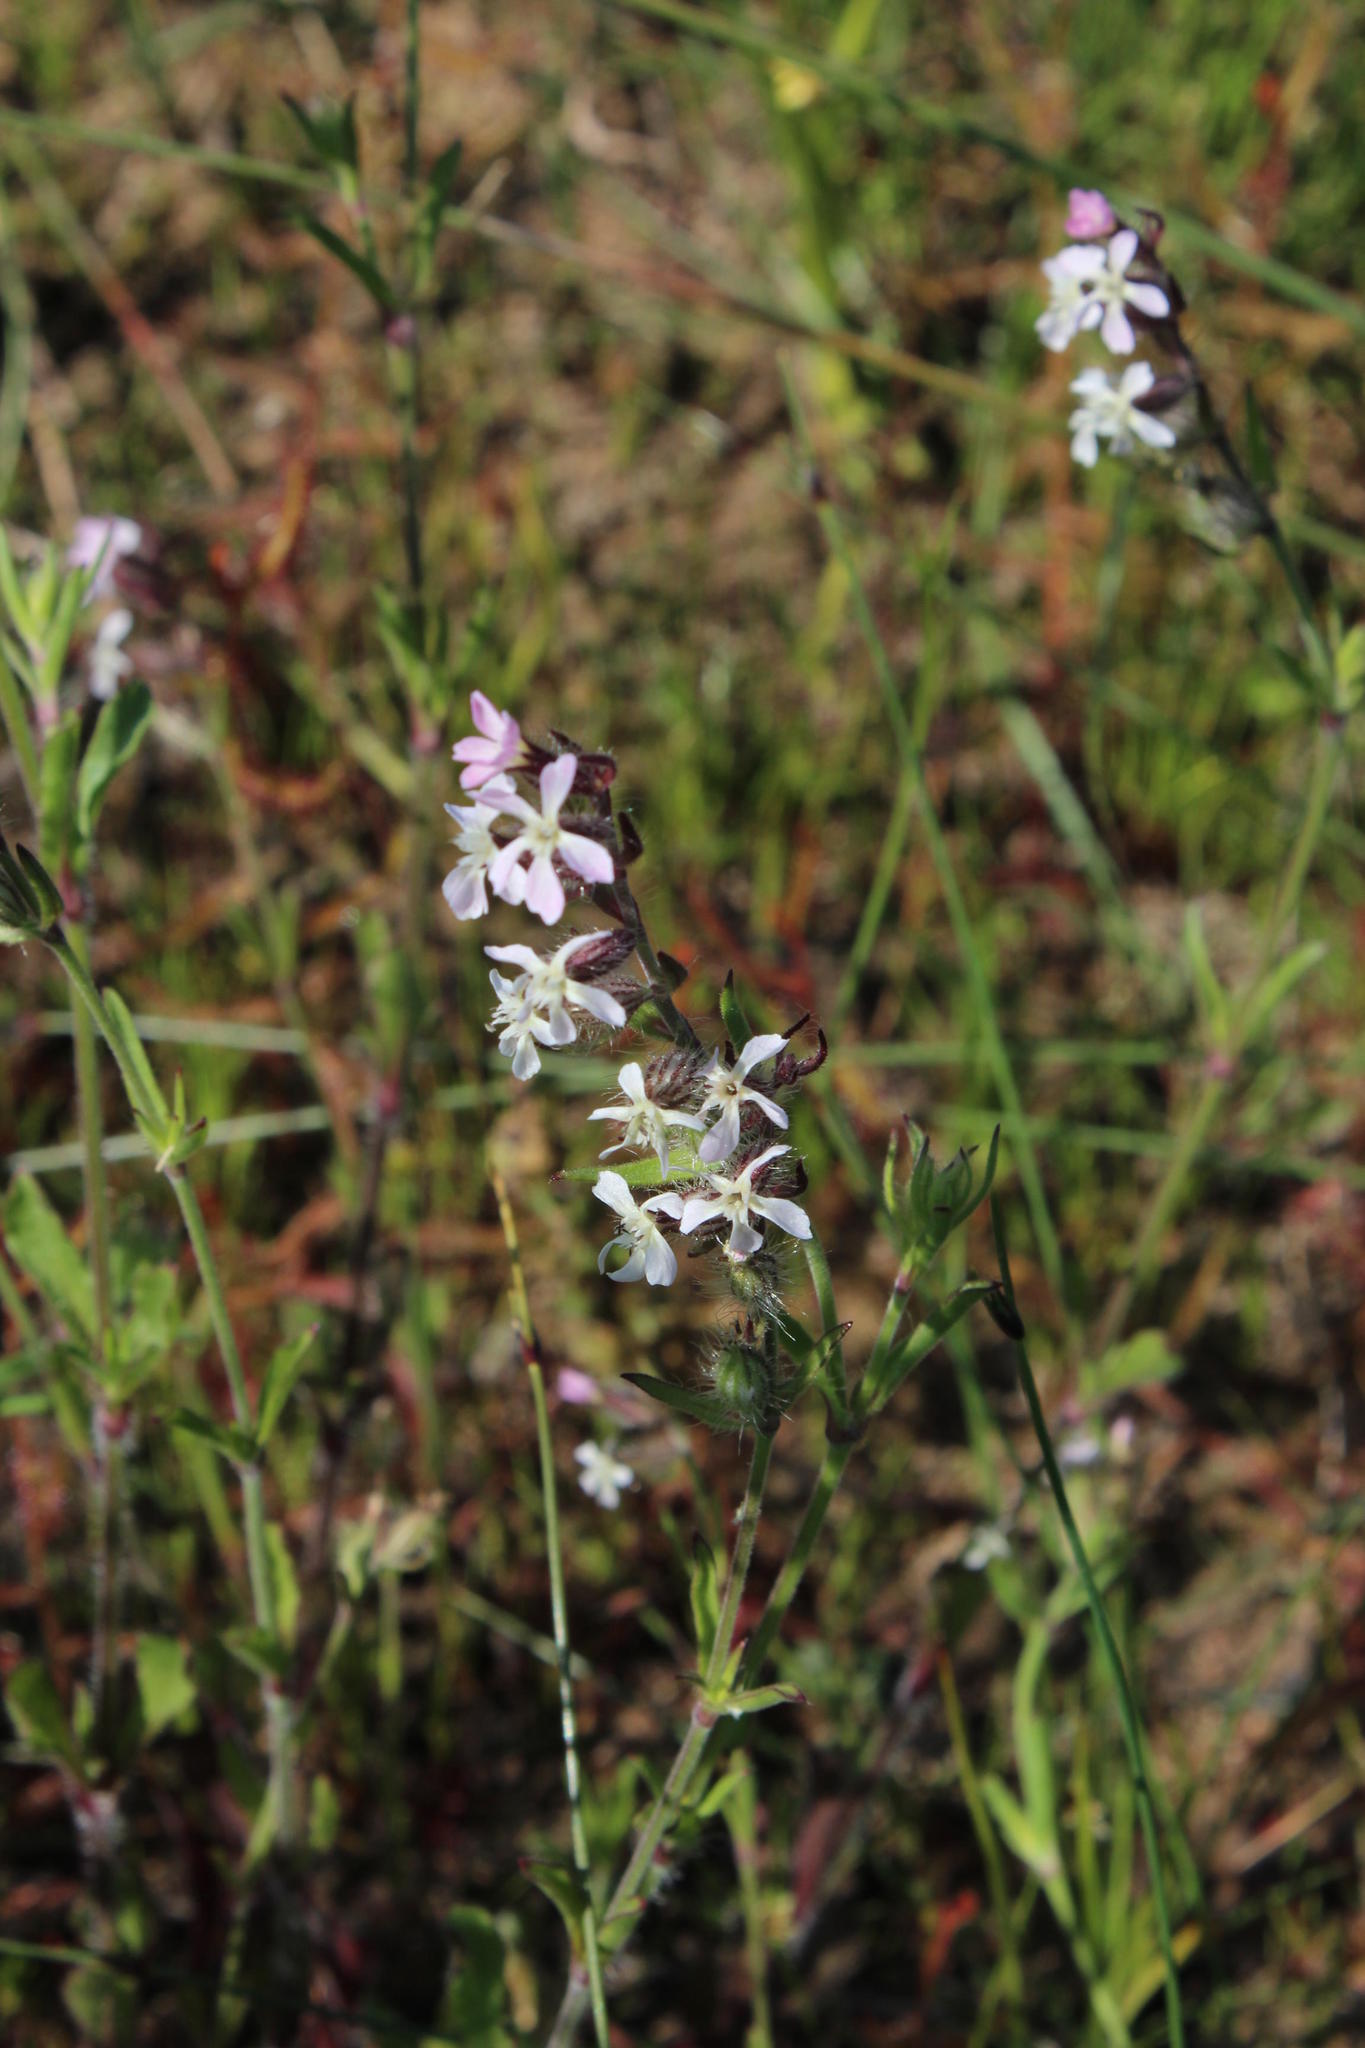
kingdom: Plantae
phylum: Tracheophyta
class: Magnoliopsida
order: Caryophyllales
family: Caryophyllaceae
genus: Silene
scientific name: Silene gallica
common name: Small-flowered catchfly
